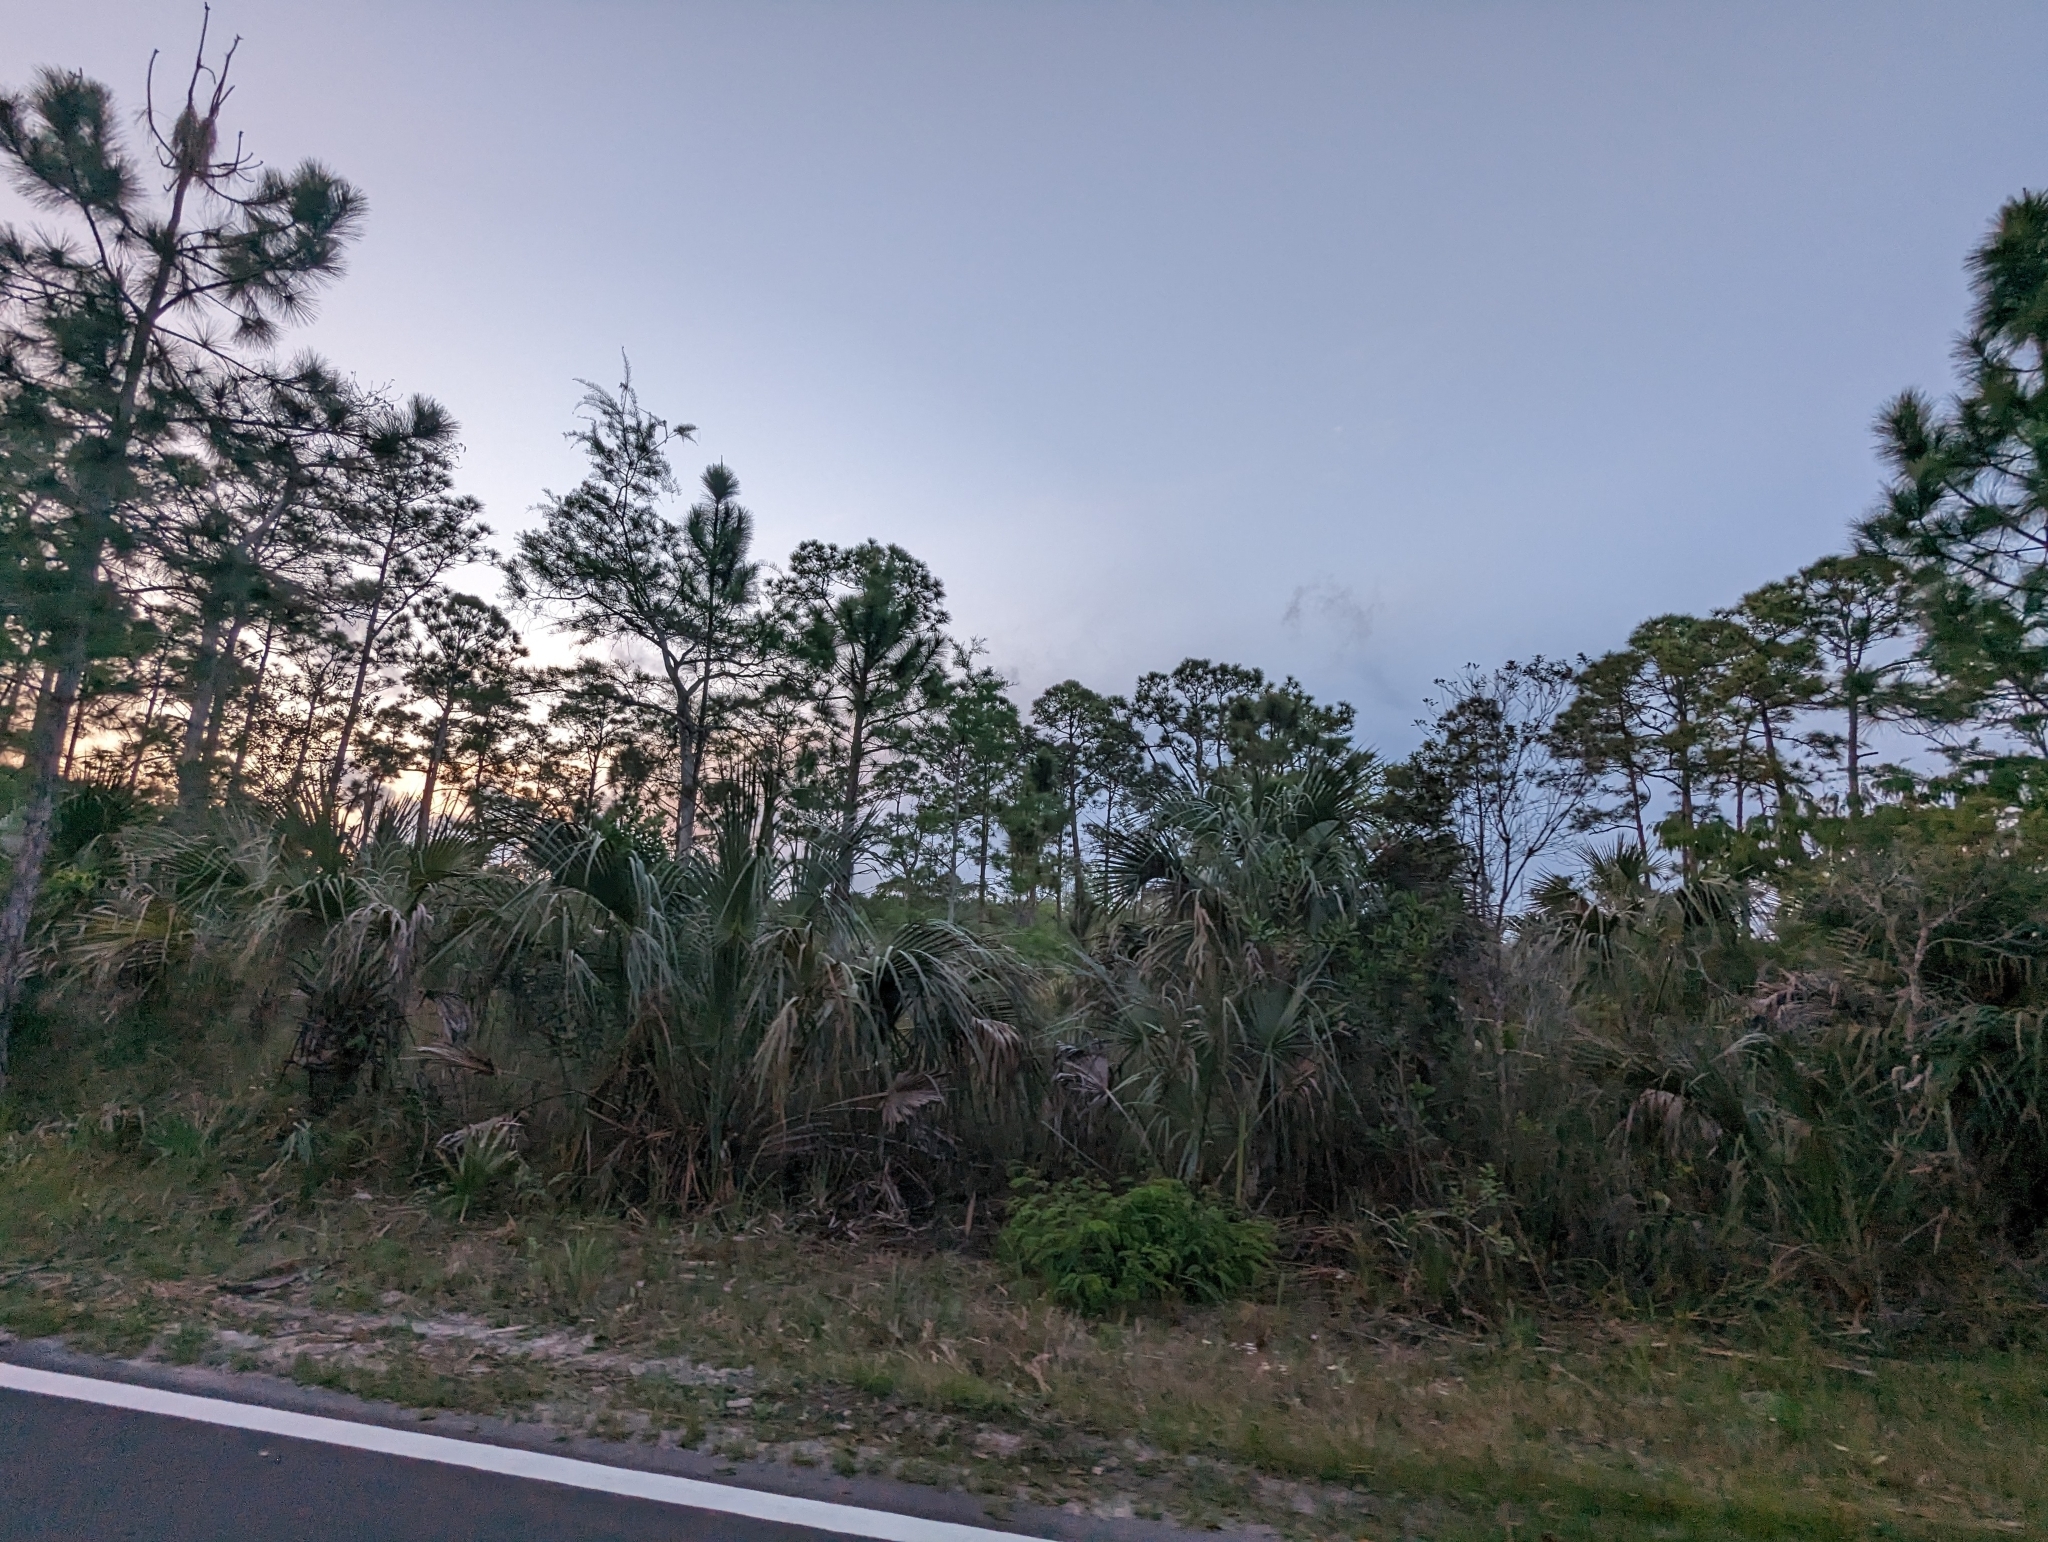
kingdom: Plantae
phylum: Tracheophyta
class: Liliopsida
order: Arecales
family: Arecaceae
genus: Sabal
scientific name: Sabal palmetto
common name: Blue palmetto
